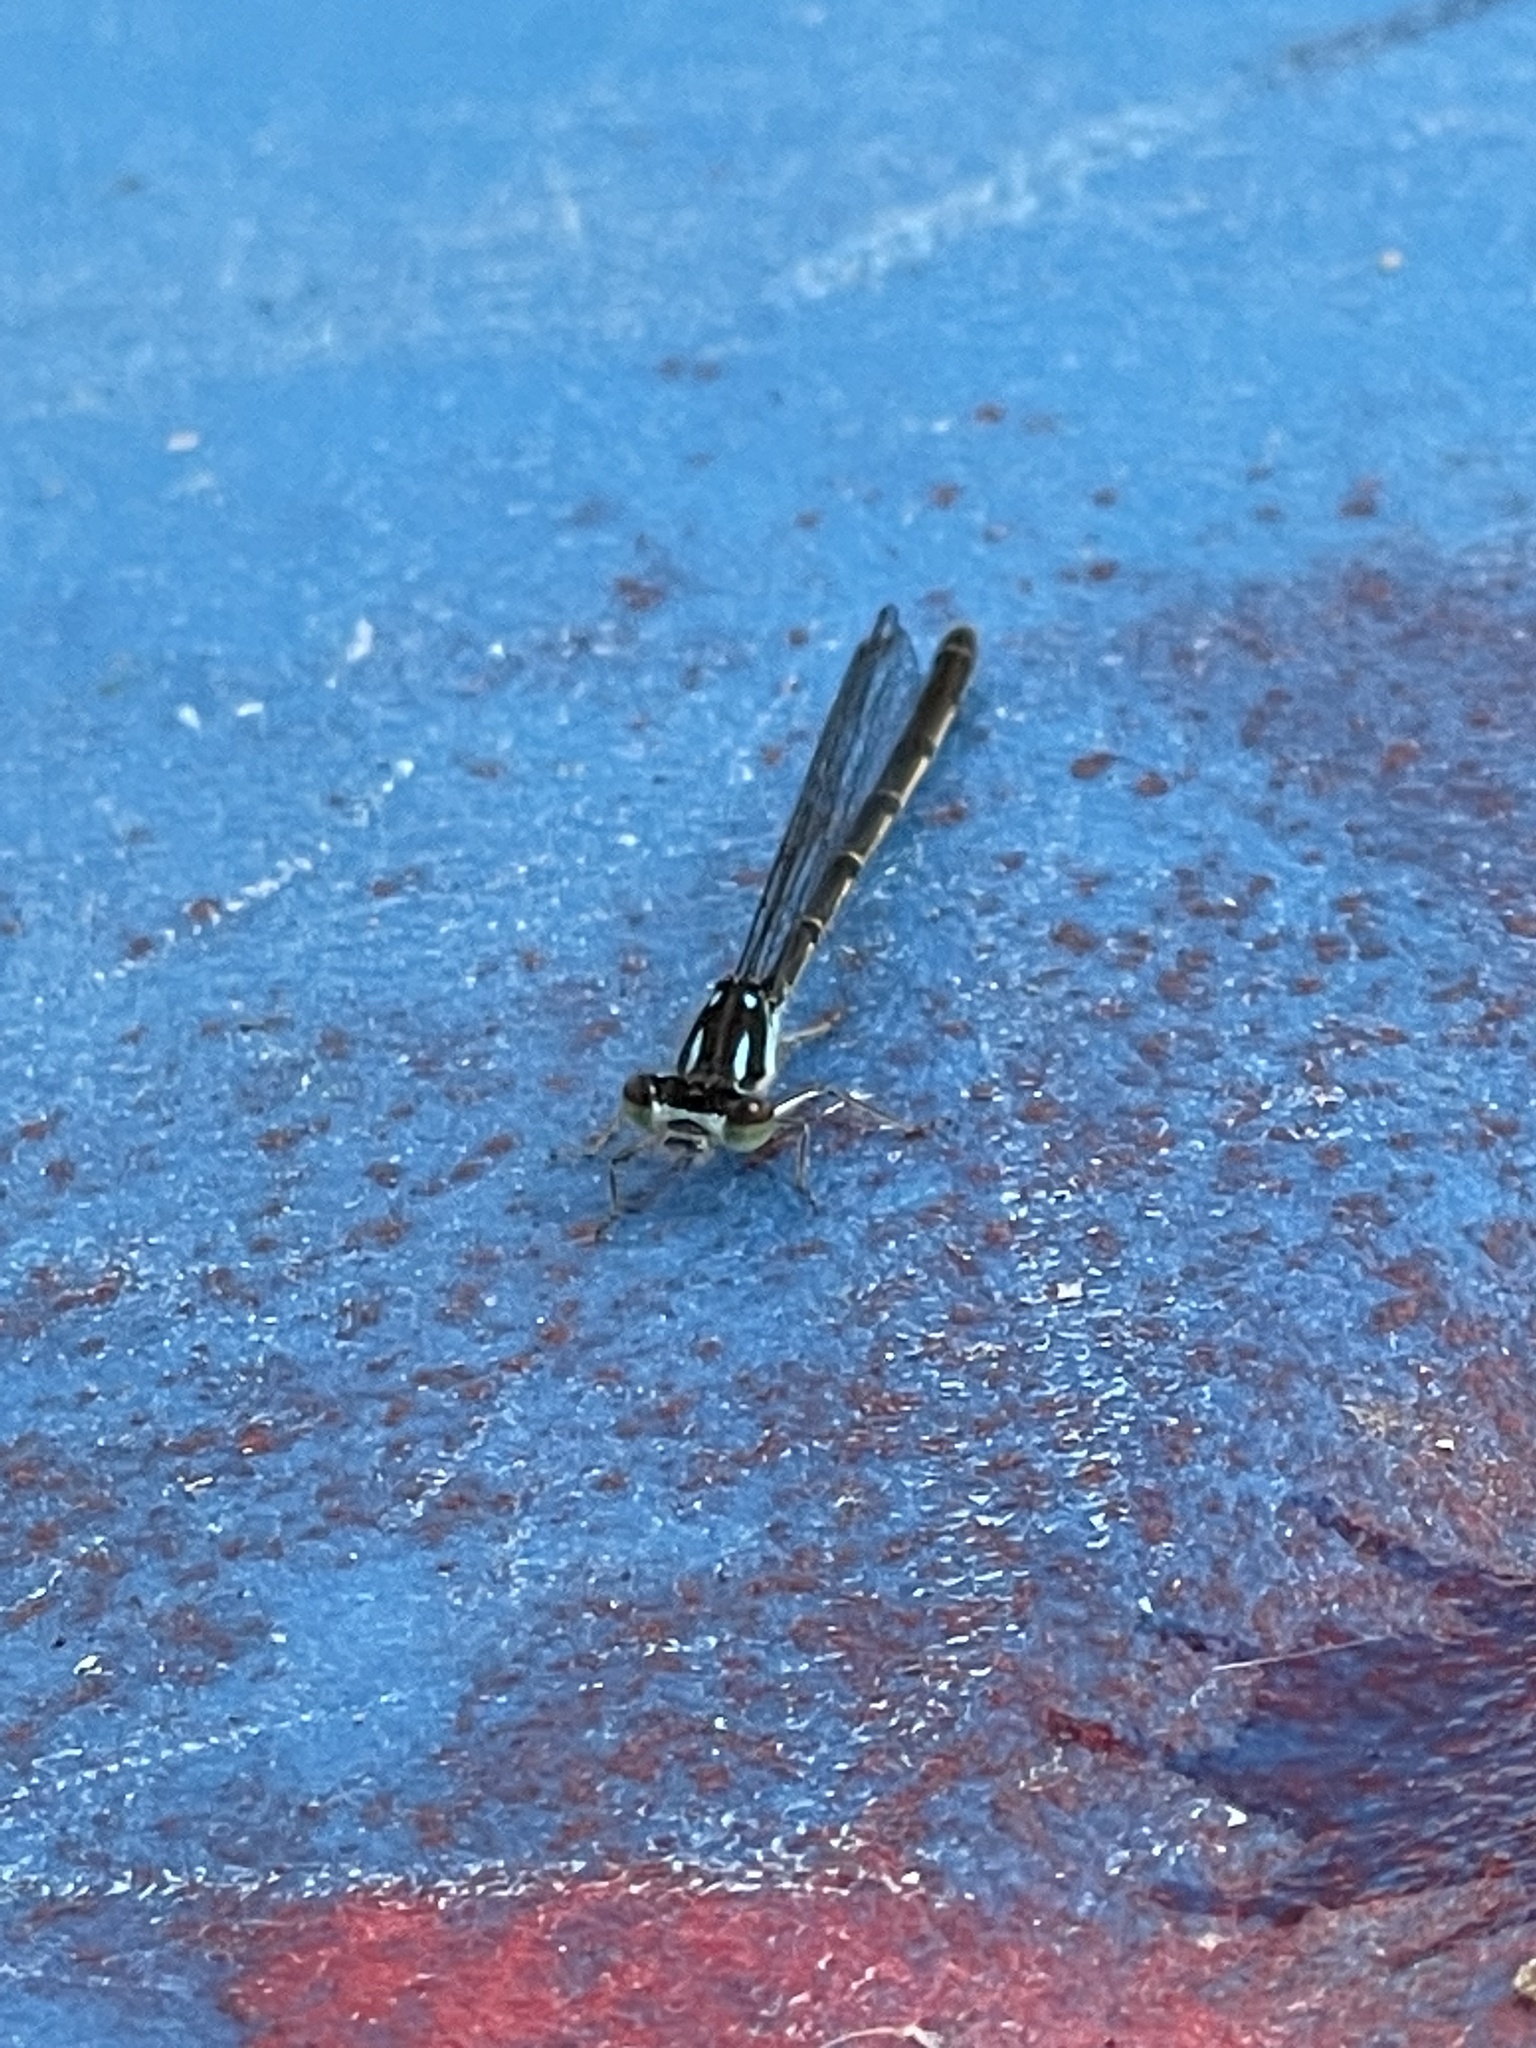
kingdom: Animalia
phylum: Arthropoda
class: Insecta
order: Odonata
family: Coenagrionidae
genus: Ischnura
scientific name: Ischnura posita
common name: Fragile forktail
